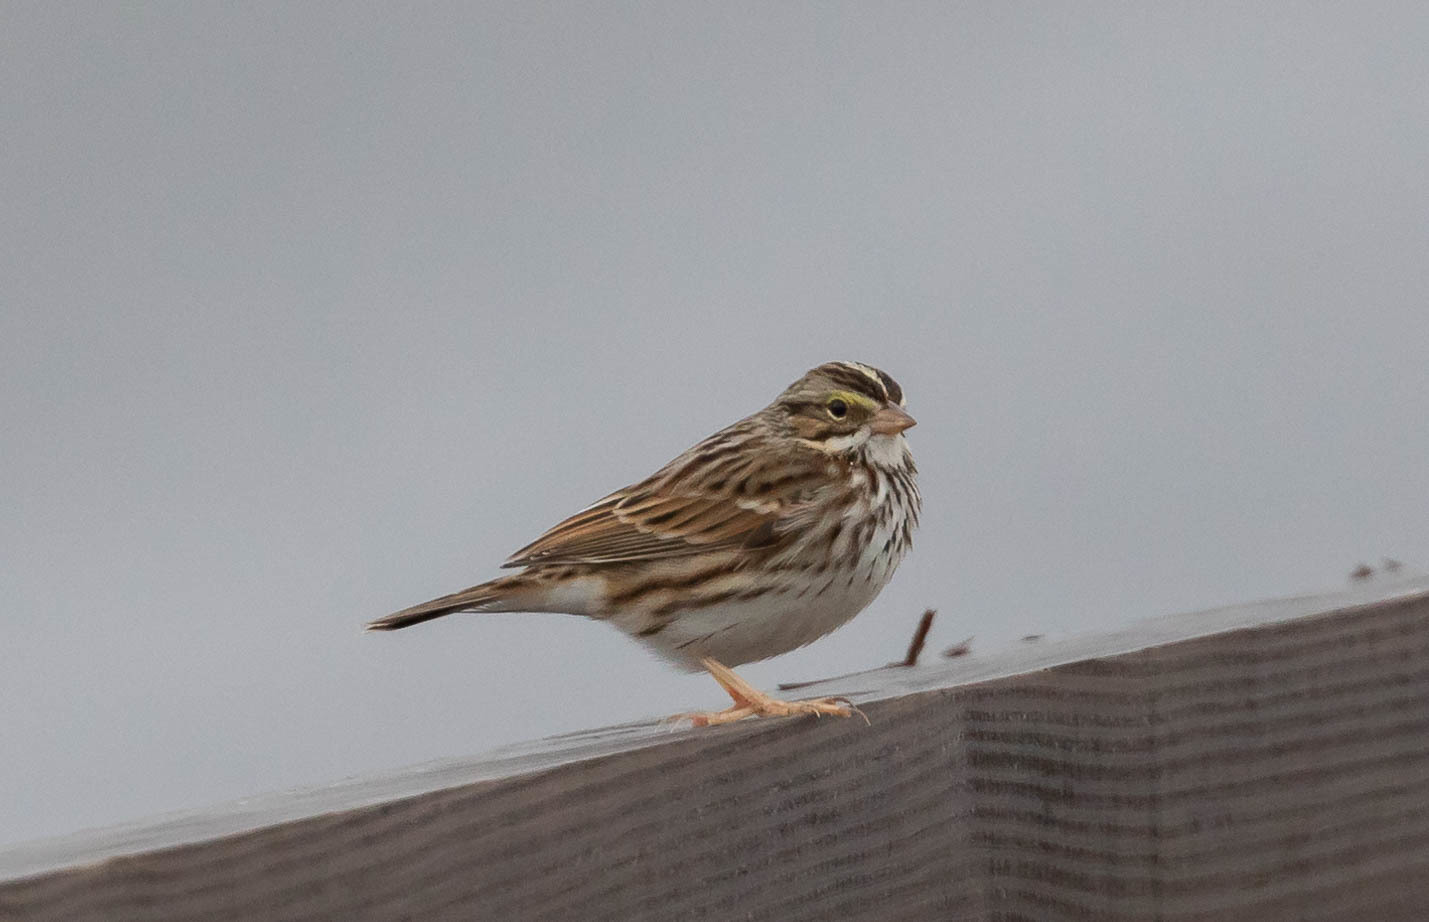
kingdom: Animalia
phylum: Chordata
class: Aves
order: Passeriformes
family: Passerellidae
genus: Passerculus
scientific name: Passerculus sandwichensis
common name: Savannah sparrow
